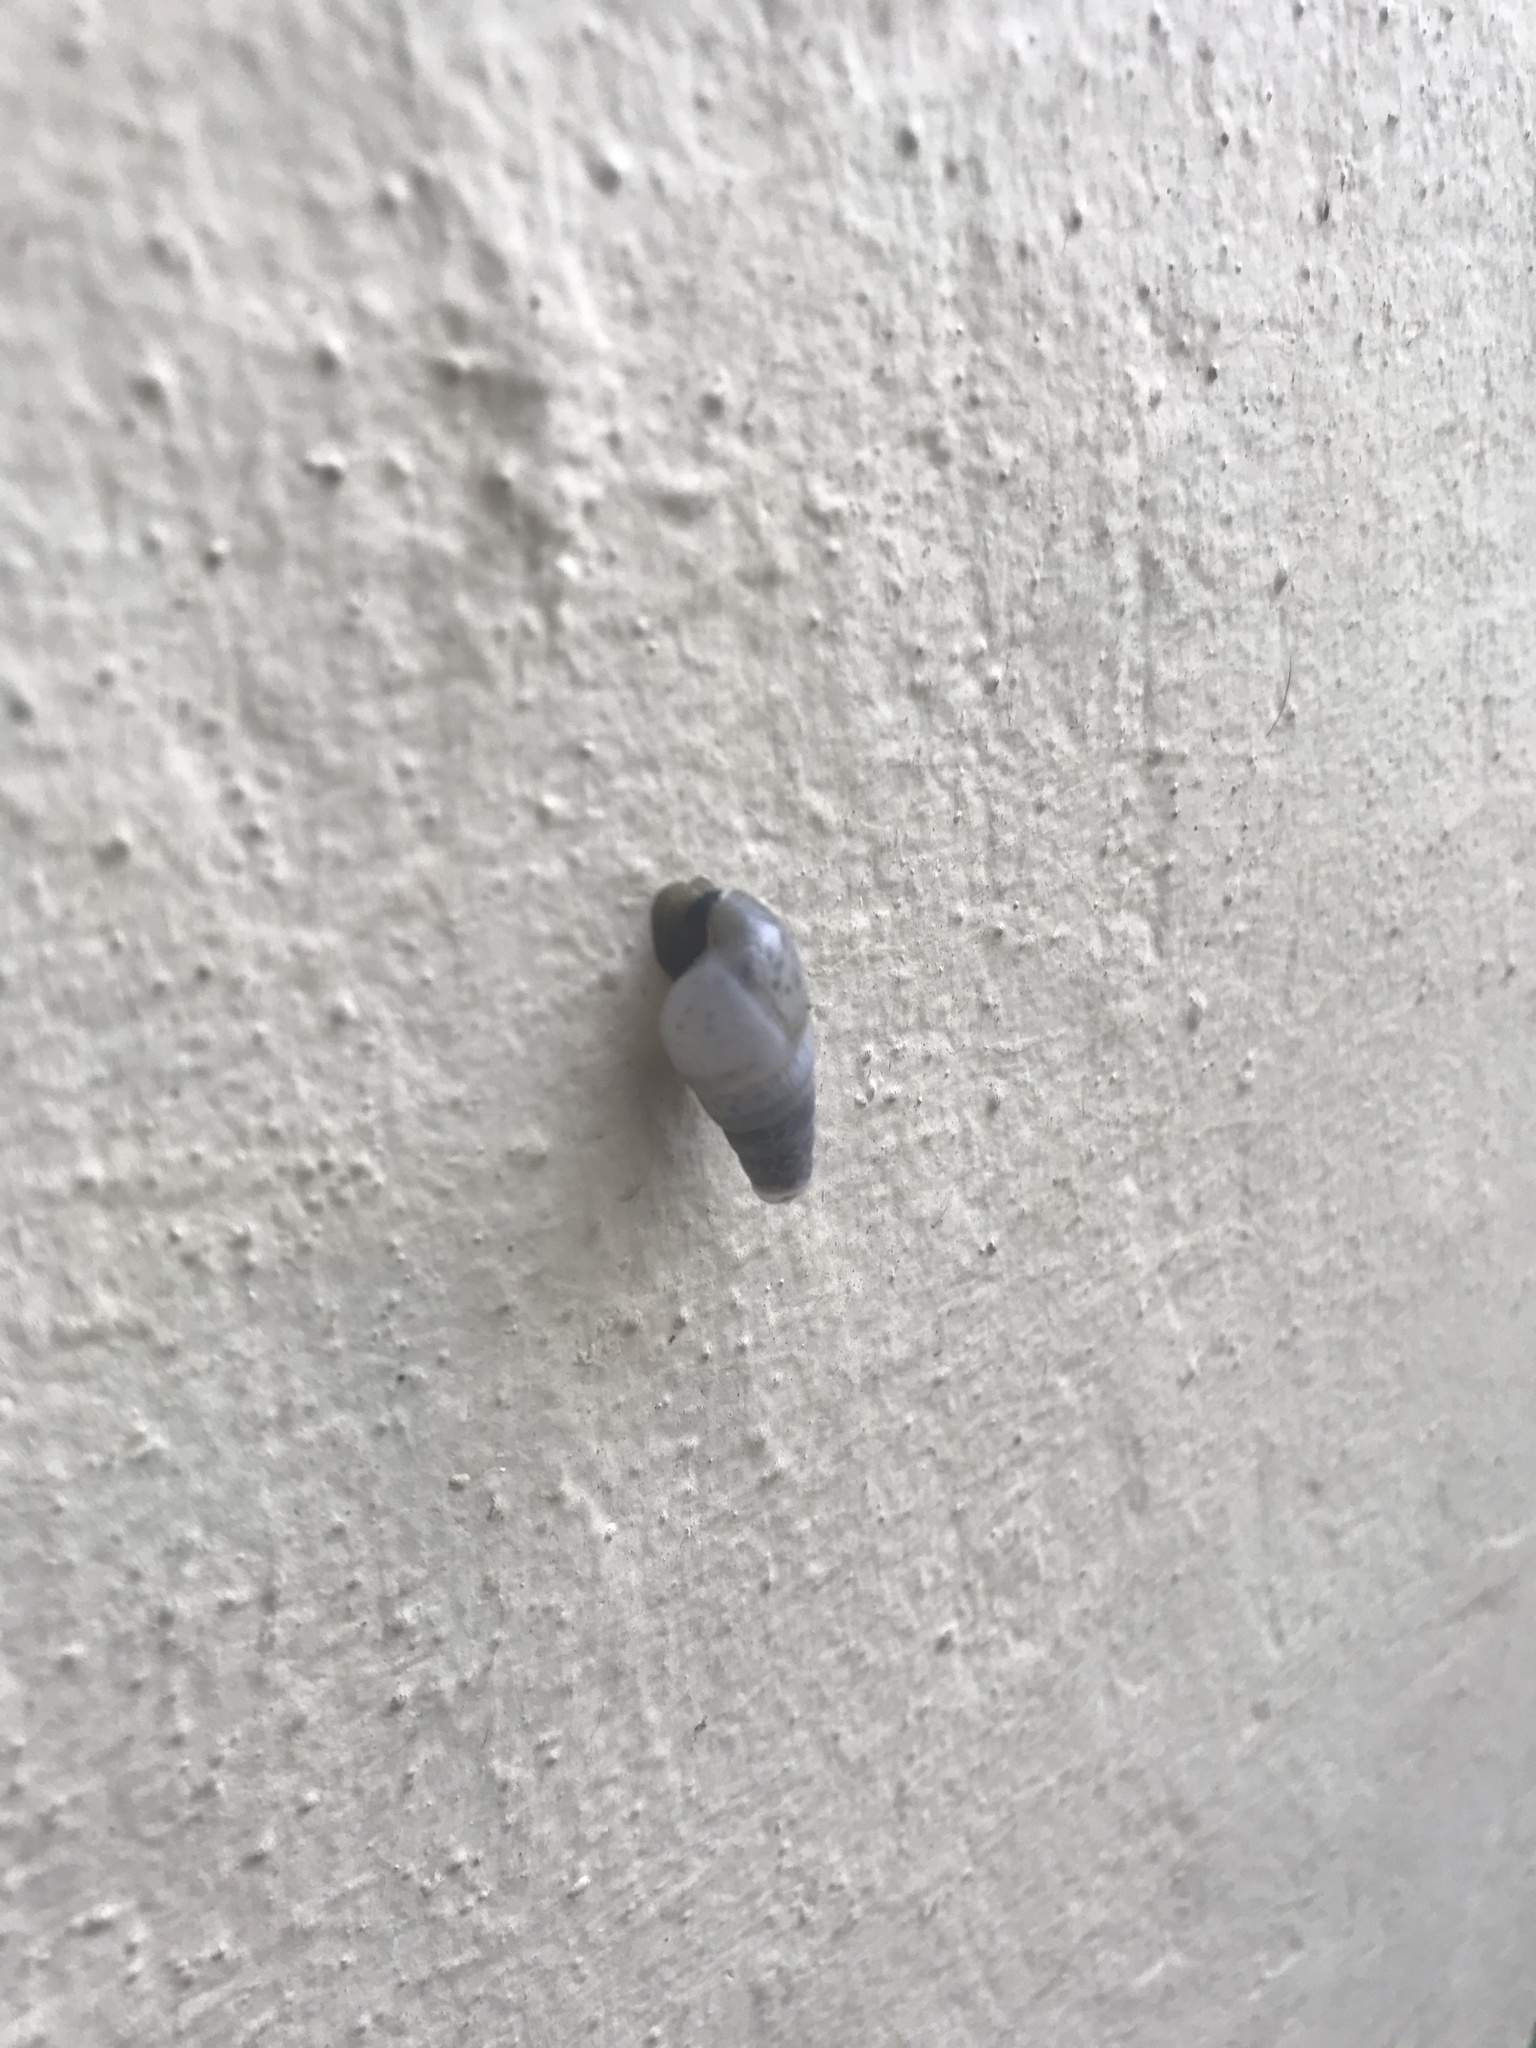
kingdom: Animalia
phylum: Mollusca
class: Gastropoda
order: Stylommatophora
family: Achatinidae
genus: Rumina
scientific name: Rumina decollata
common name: Decollate snail
